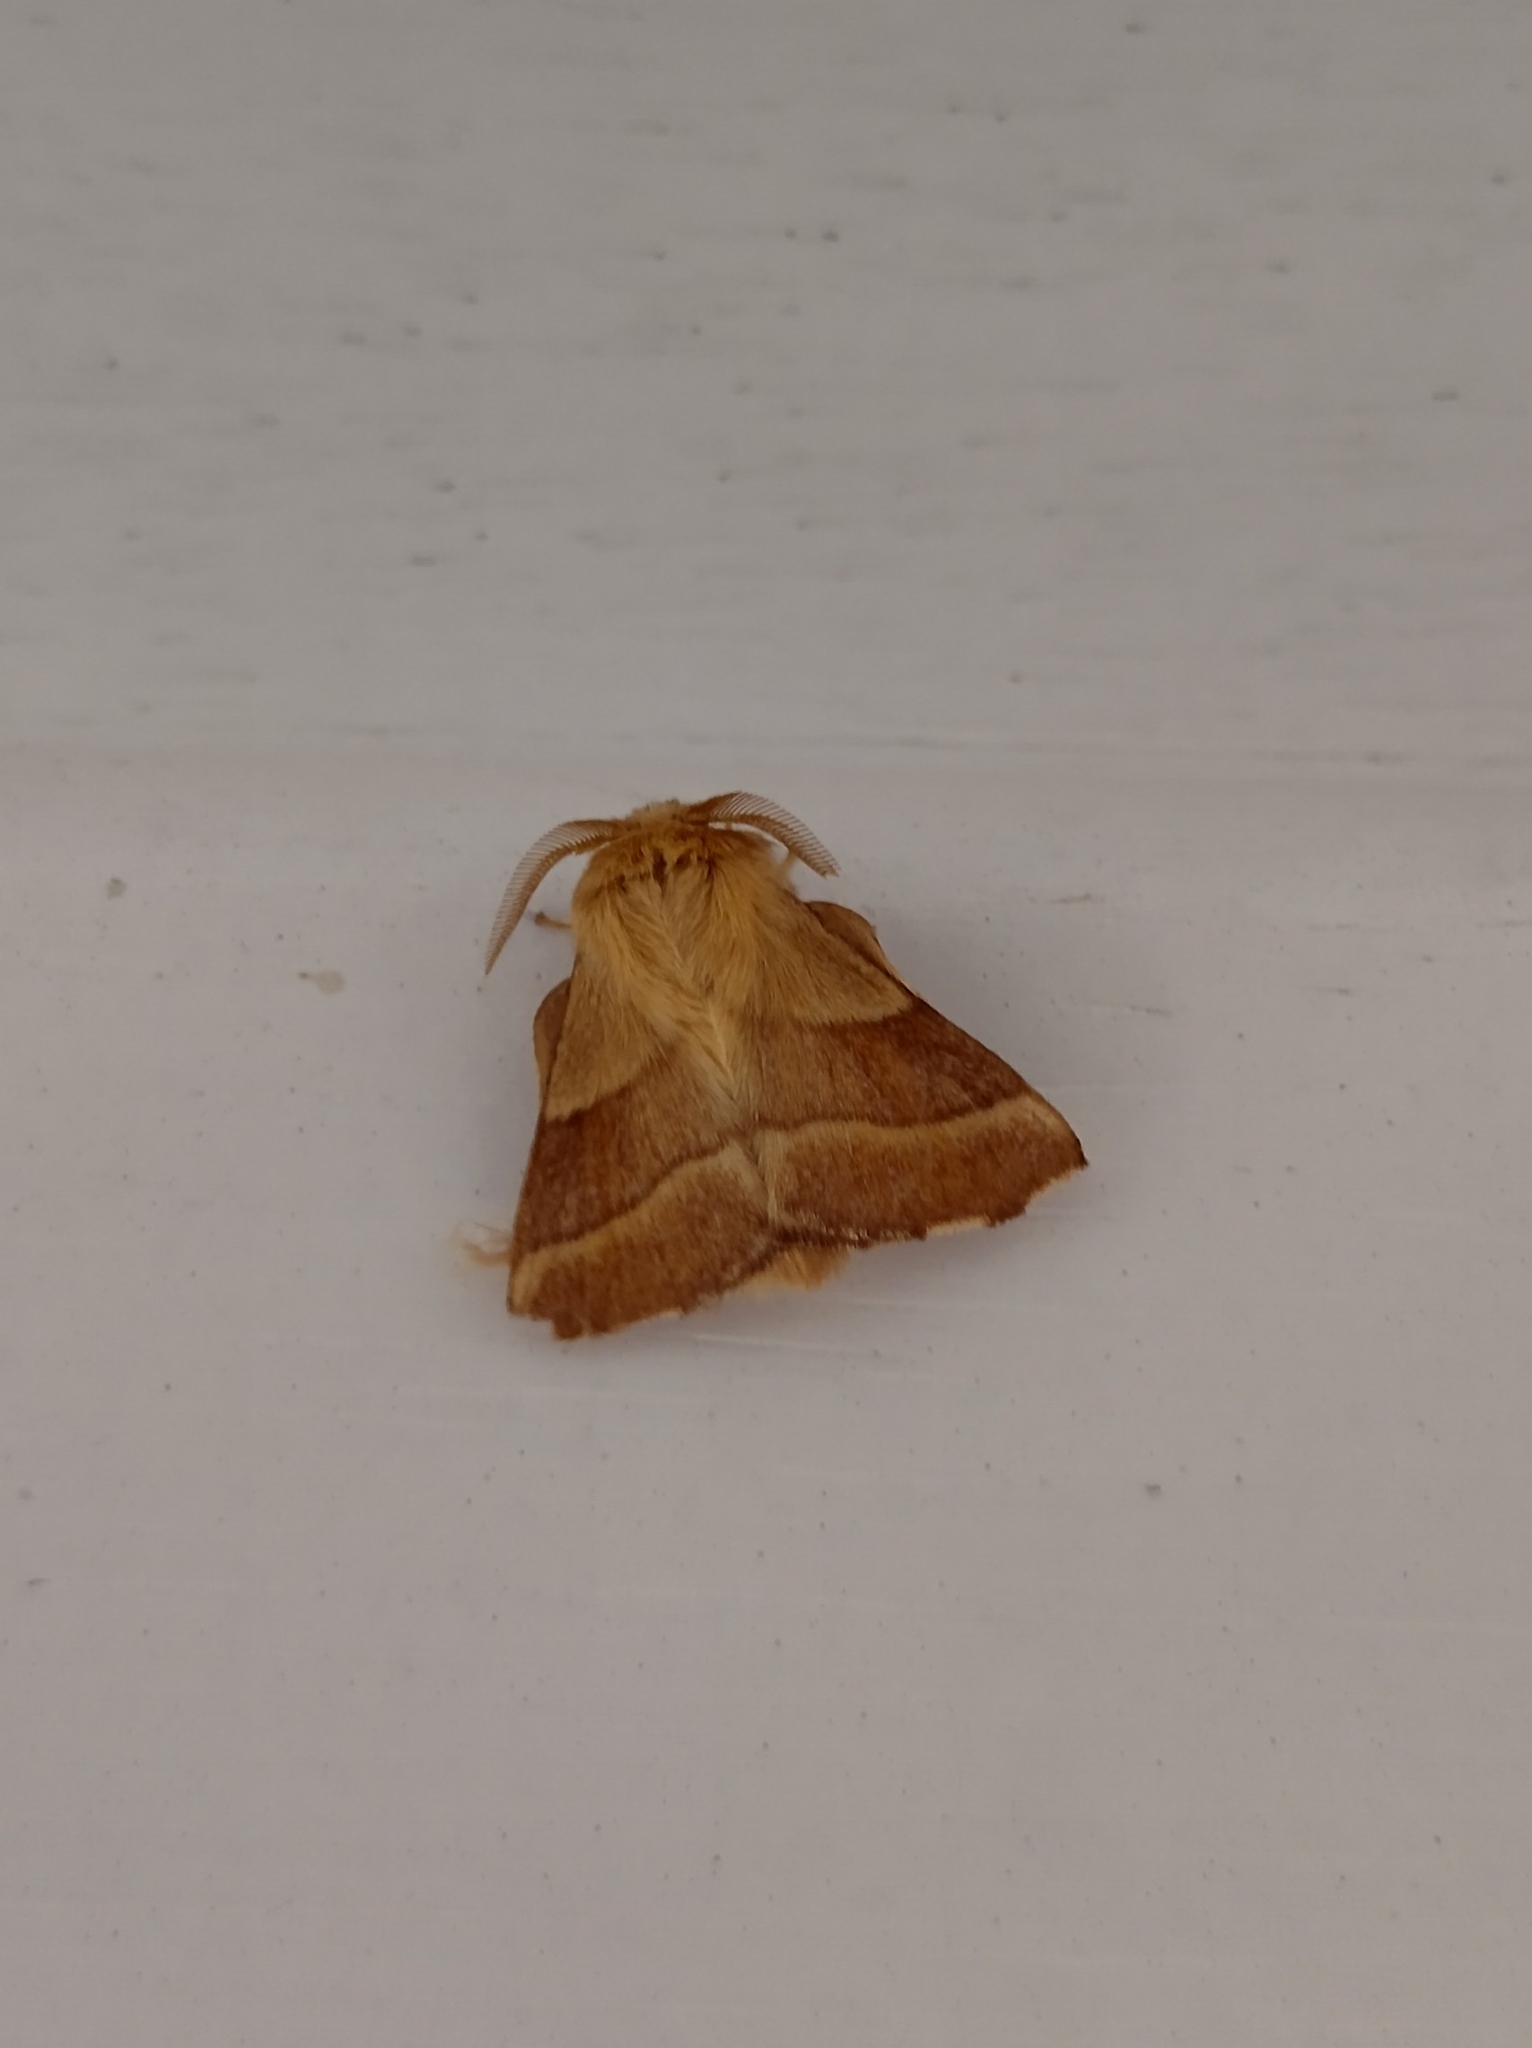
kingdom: Animalia
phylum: Arthropoda
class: Insecta
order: Lepidoptera
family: Lasiocampidae
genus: Malacosoma
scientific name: Malacosoma neustria
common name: The lackey
